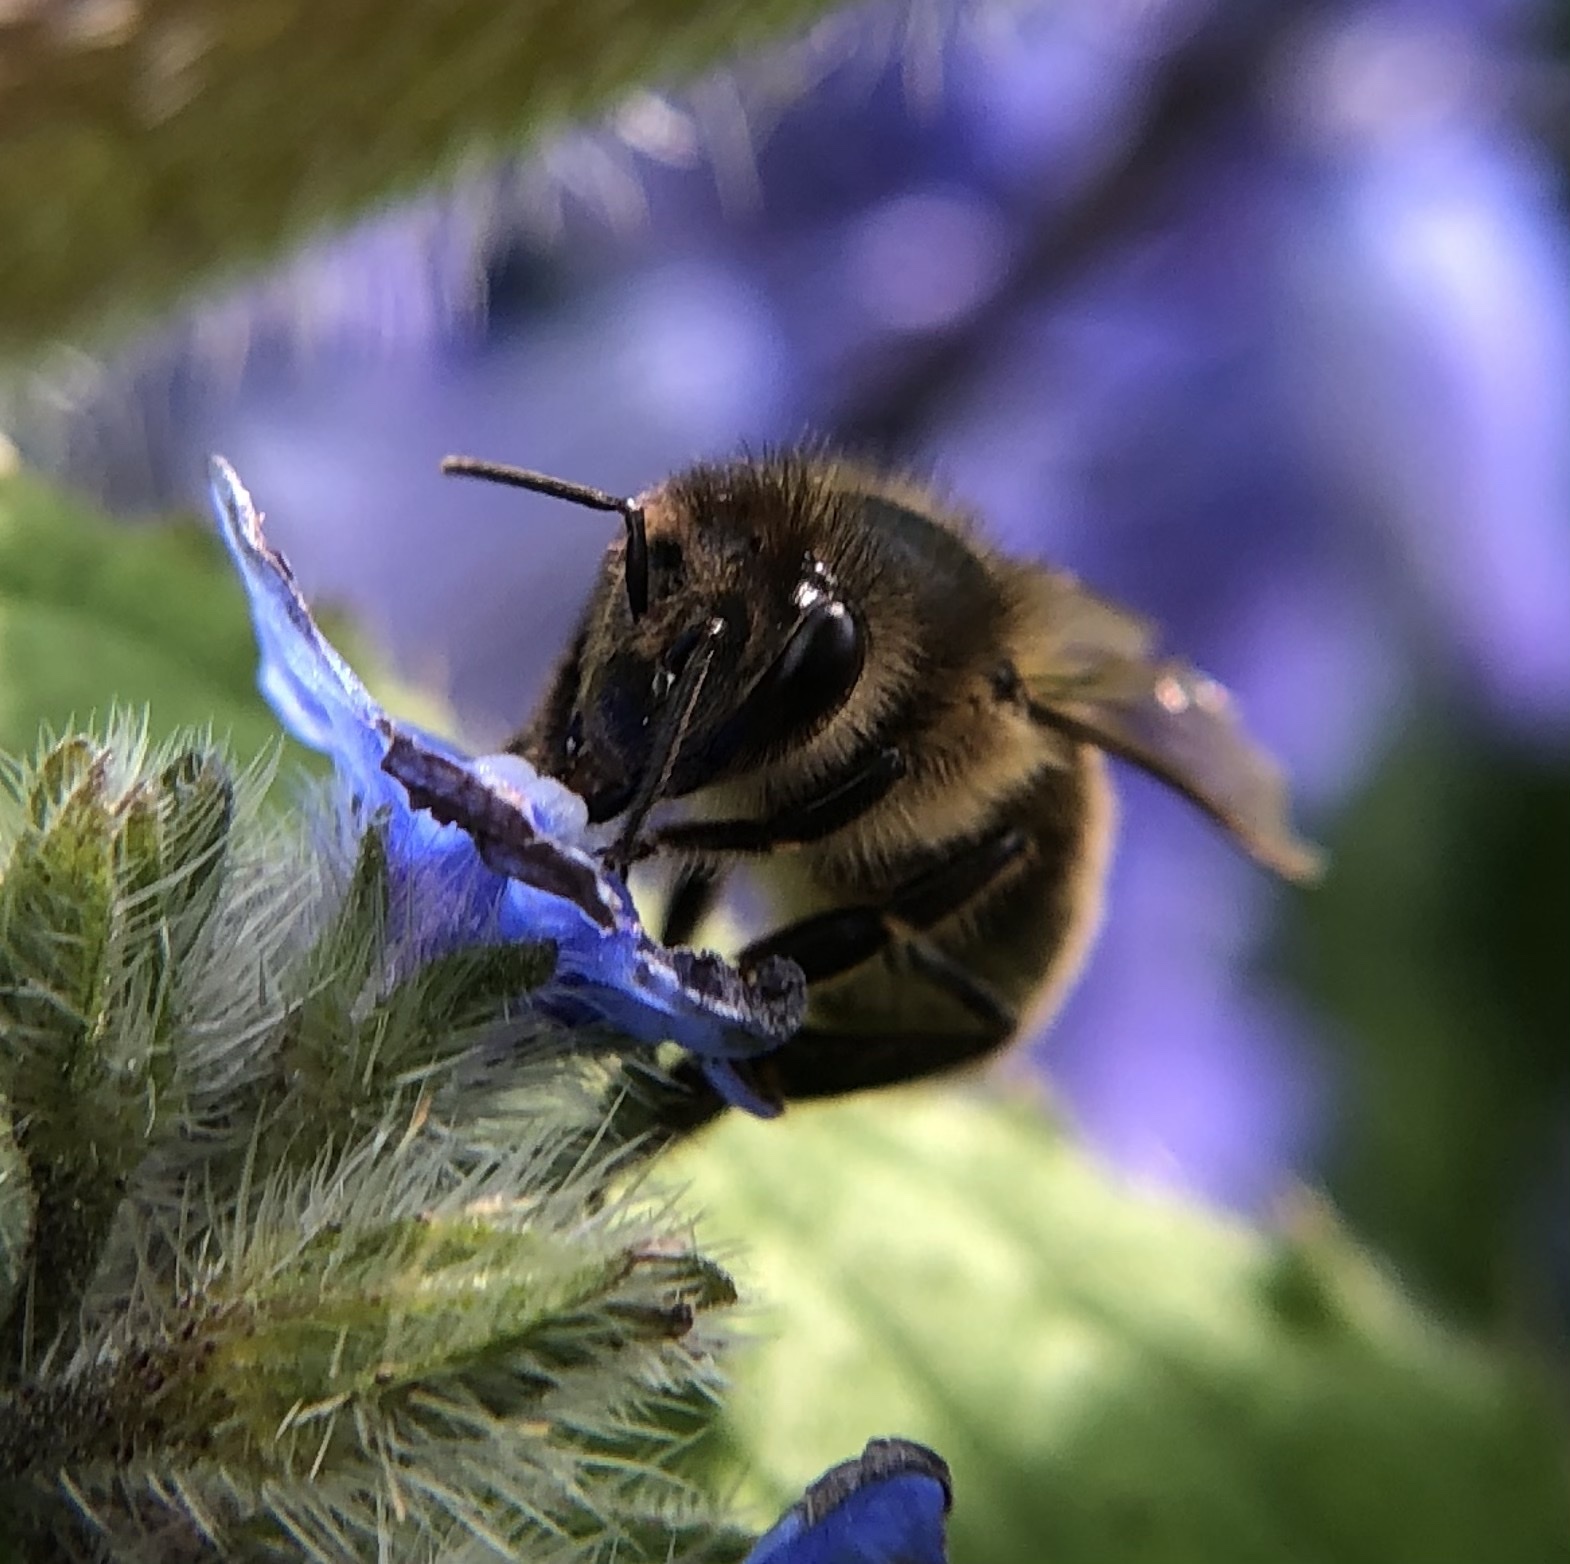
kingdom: Animalia
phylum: Arthropoda
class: Insecta
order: Hymenoptera
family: Apidae
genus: Apis
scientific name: Apis mellifera
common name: Honey bee
